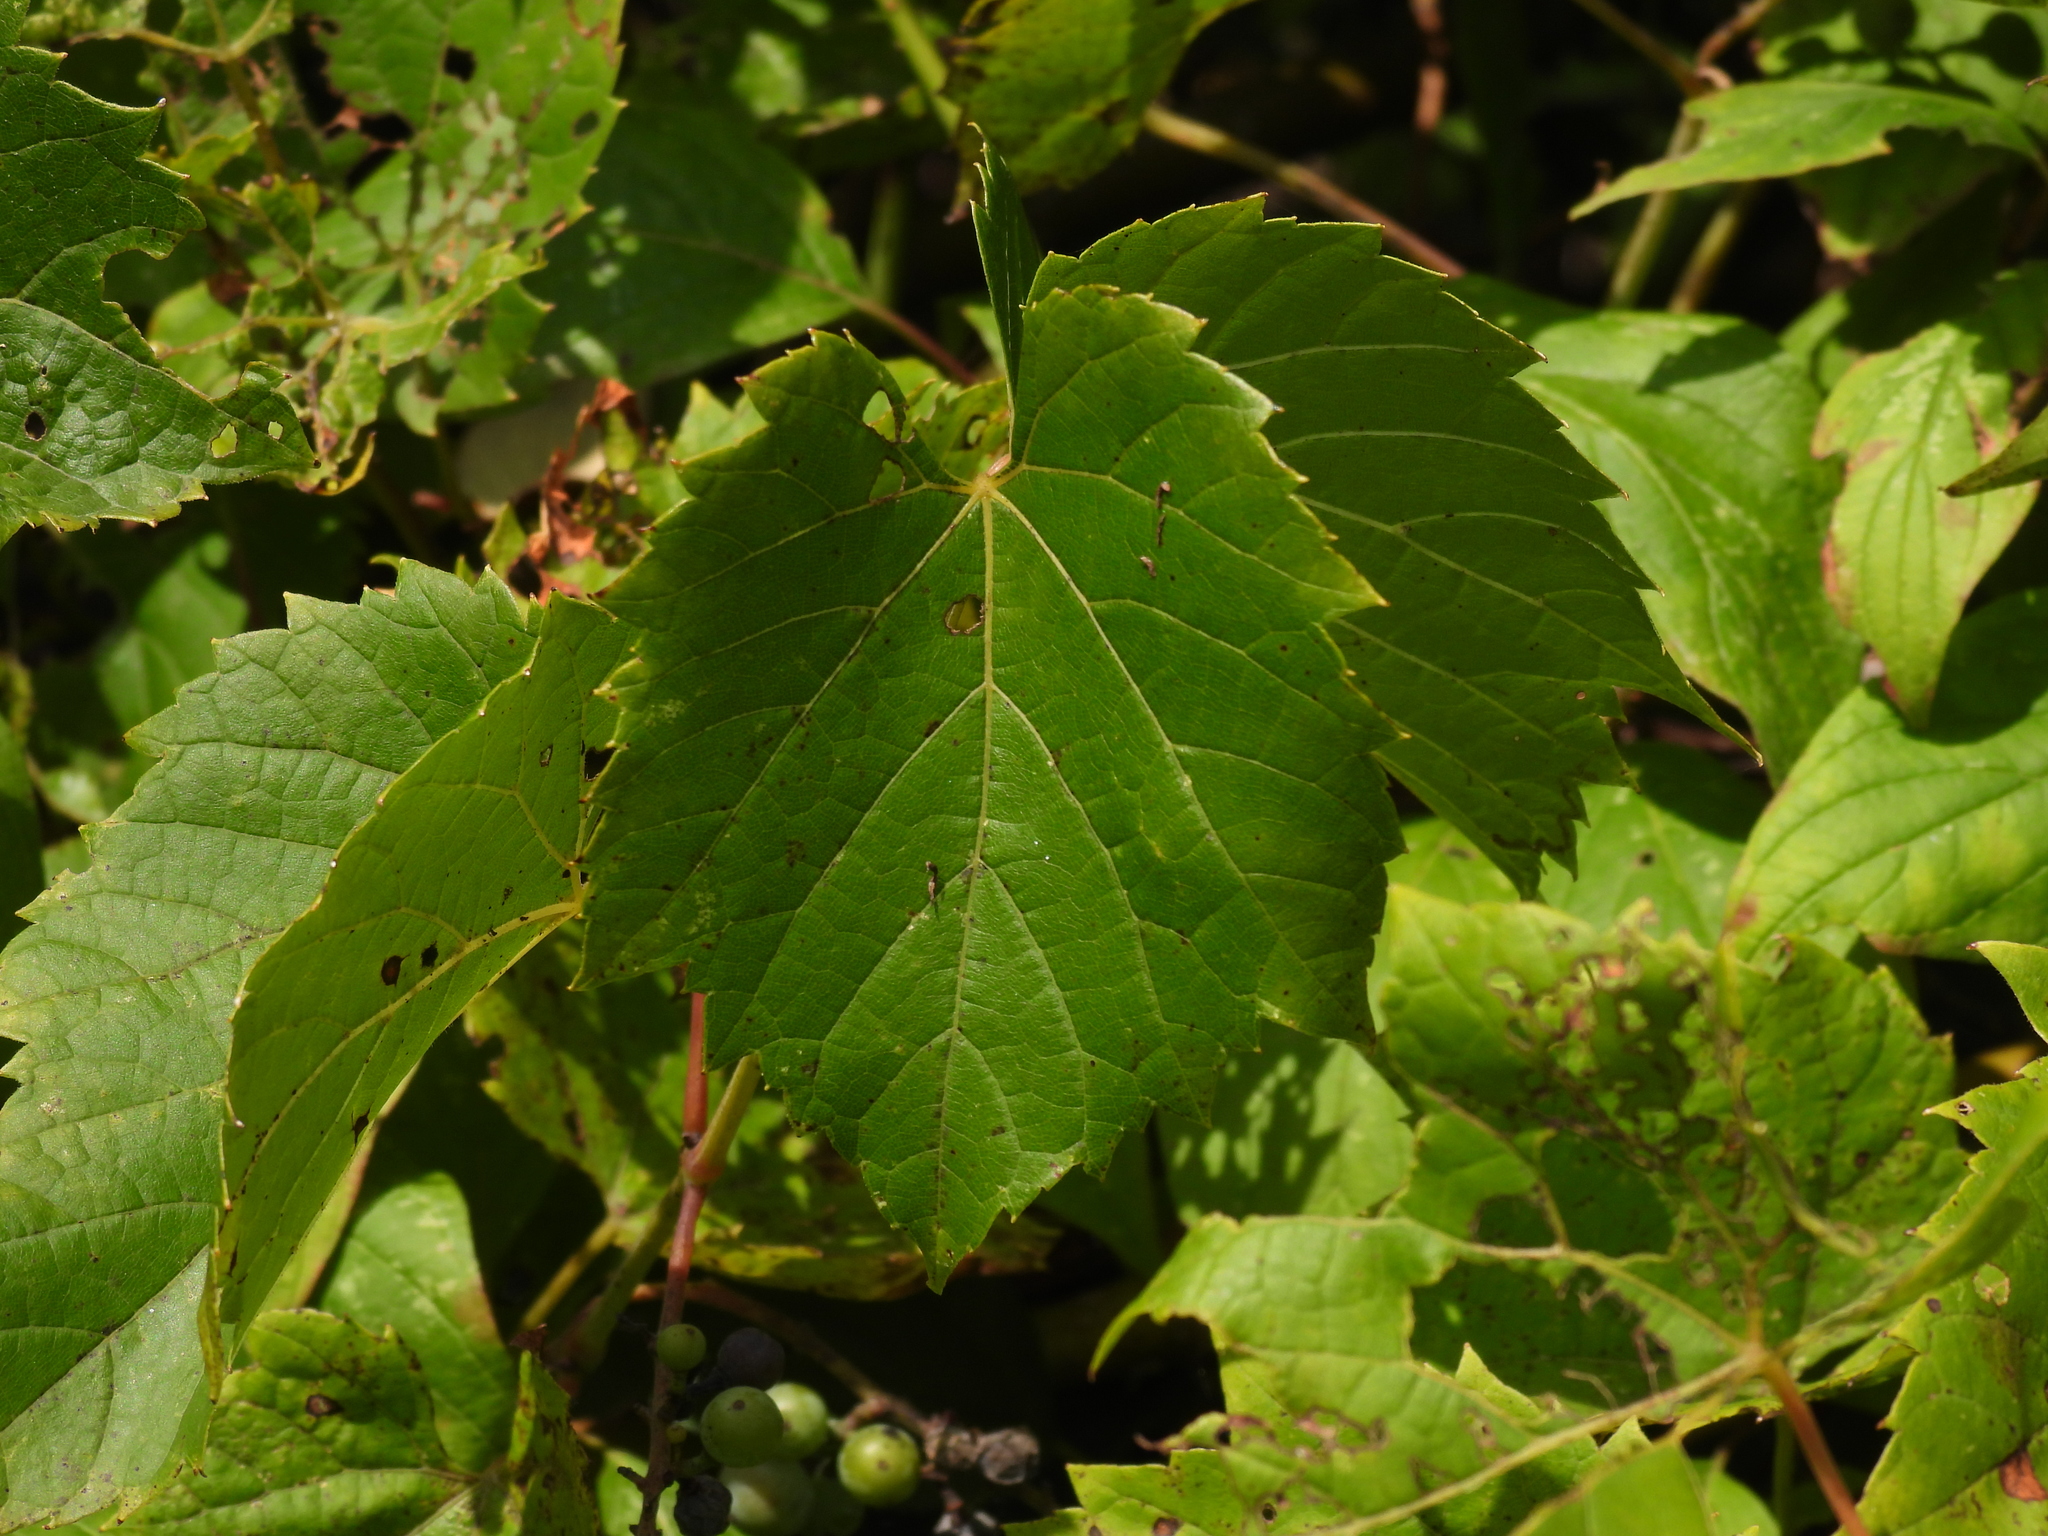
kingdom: Plantae
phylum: Tracheophyta
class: Magnoliopsida
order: Vitales
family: Vitaceae
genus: Vitis
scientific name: Vitis riparia
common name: Frost grape
